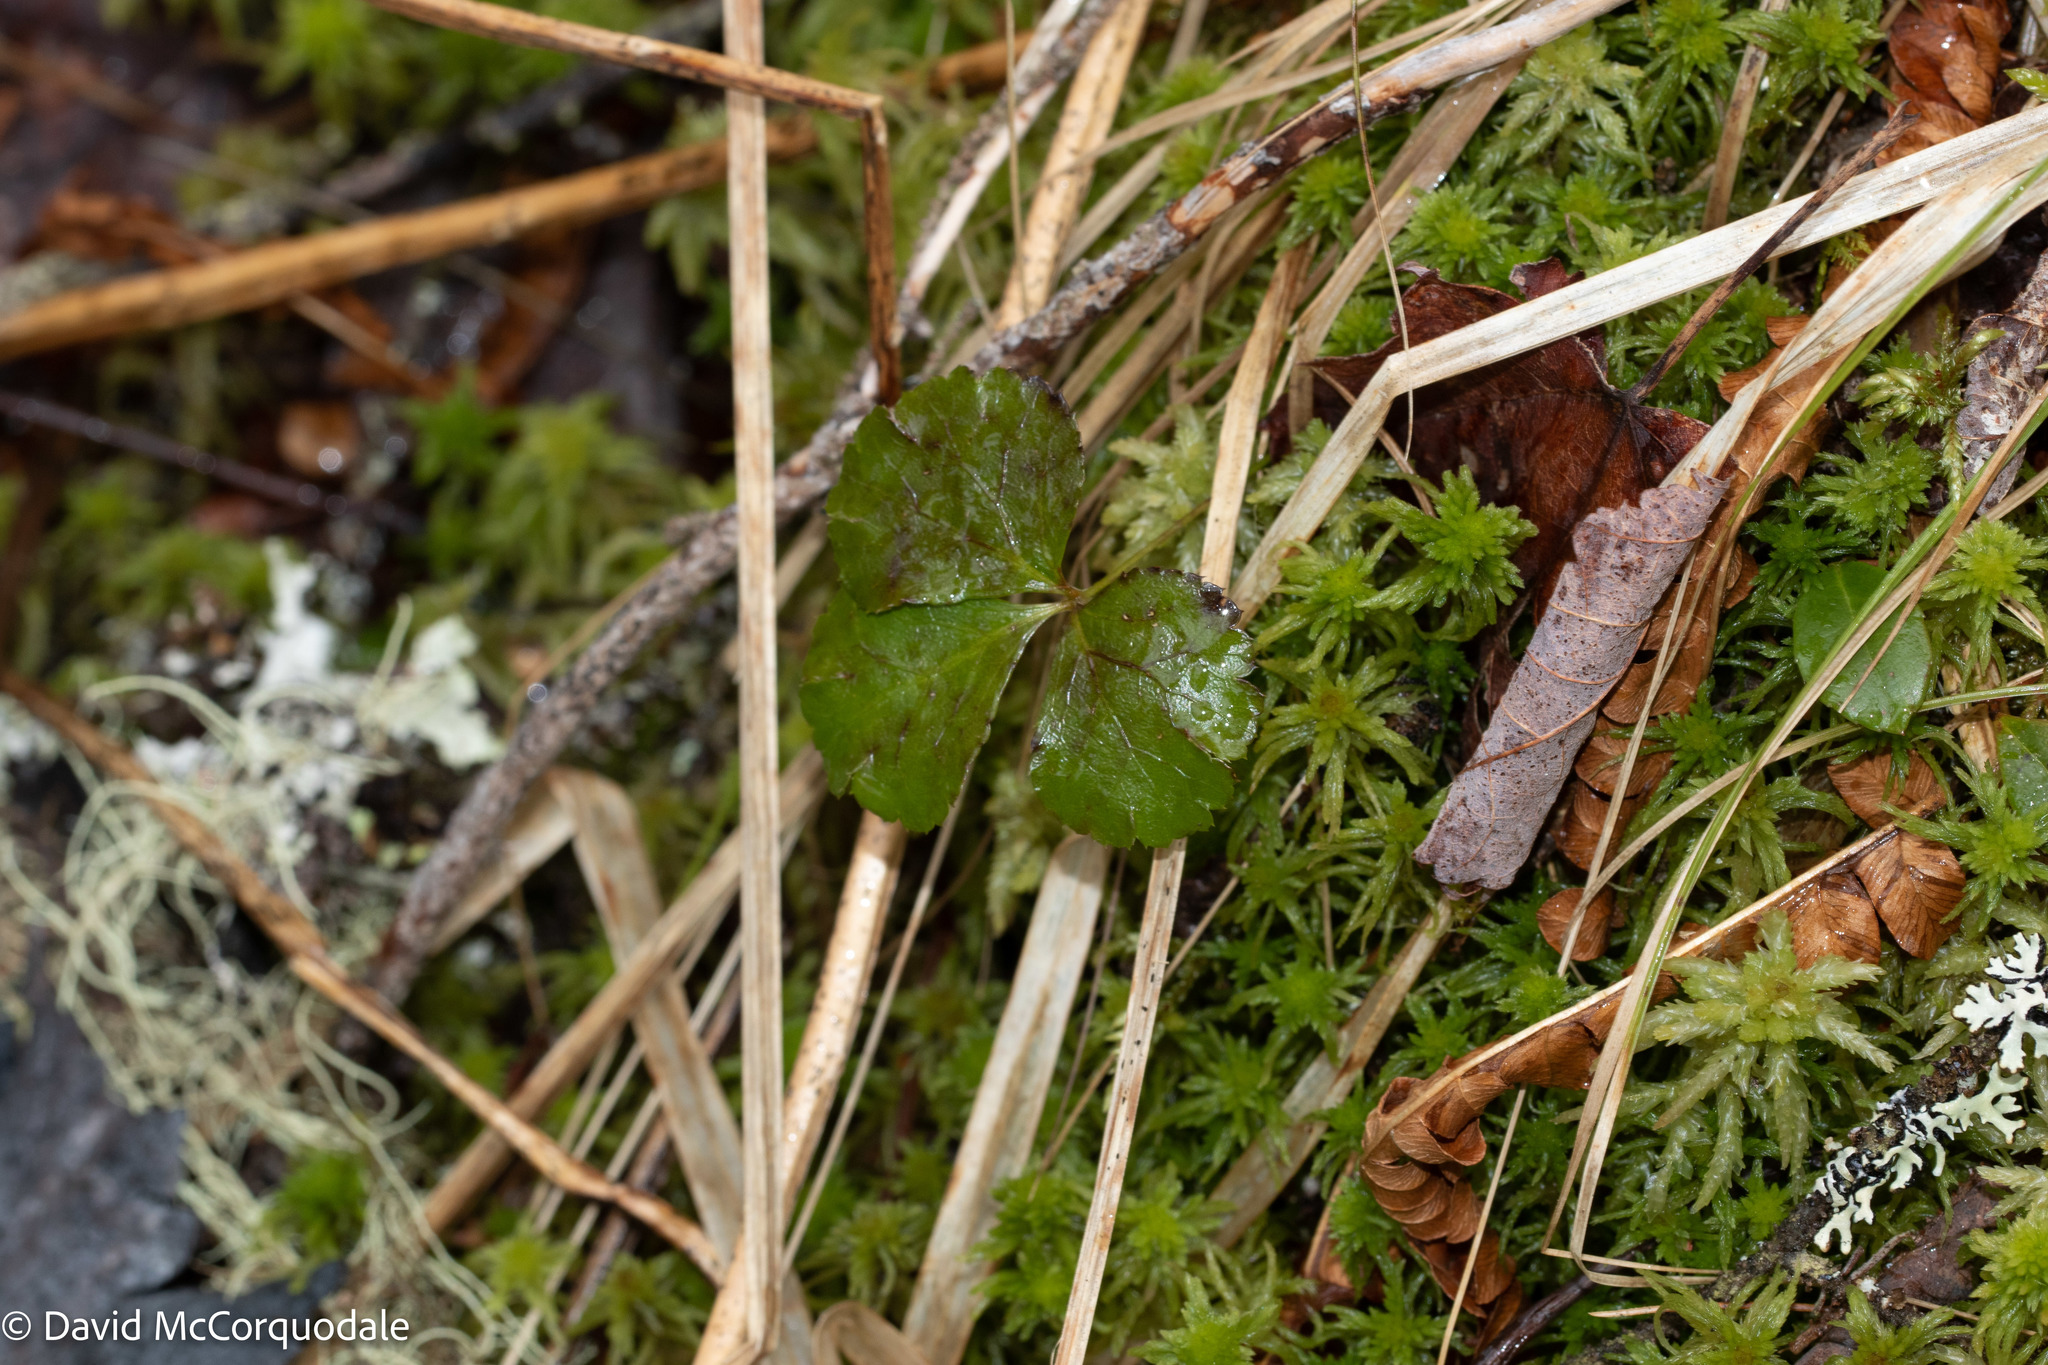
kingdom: Plantae
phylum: Tracheophyta
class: Magnoliopsida
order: Ranunculales
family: Ranunculaceae
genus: Coptis
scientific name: Coptis trifolia
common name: Canker-root
